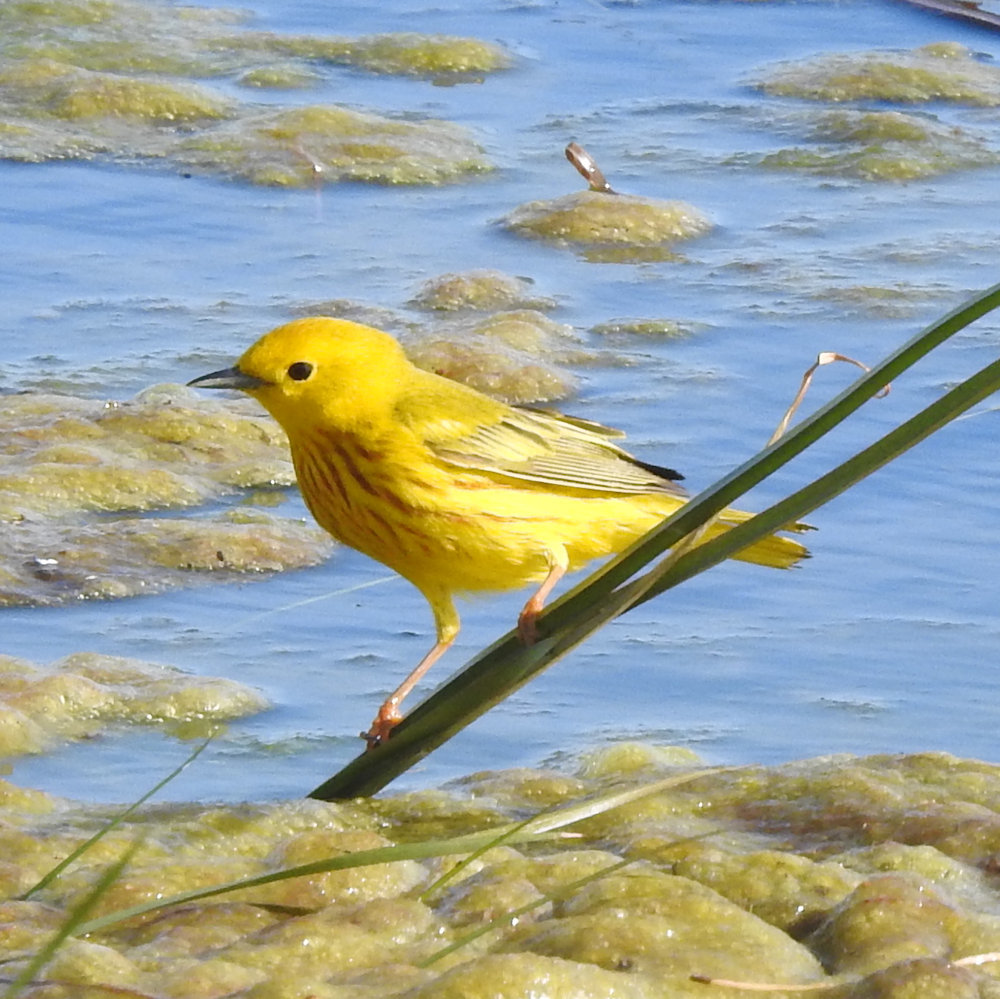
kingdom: Animalia
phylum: Chordata
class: Aves
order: Passeriformes
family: Parulidae
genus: Setophaga
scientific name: Setophaga petechia
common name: Yellow warbler
